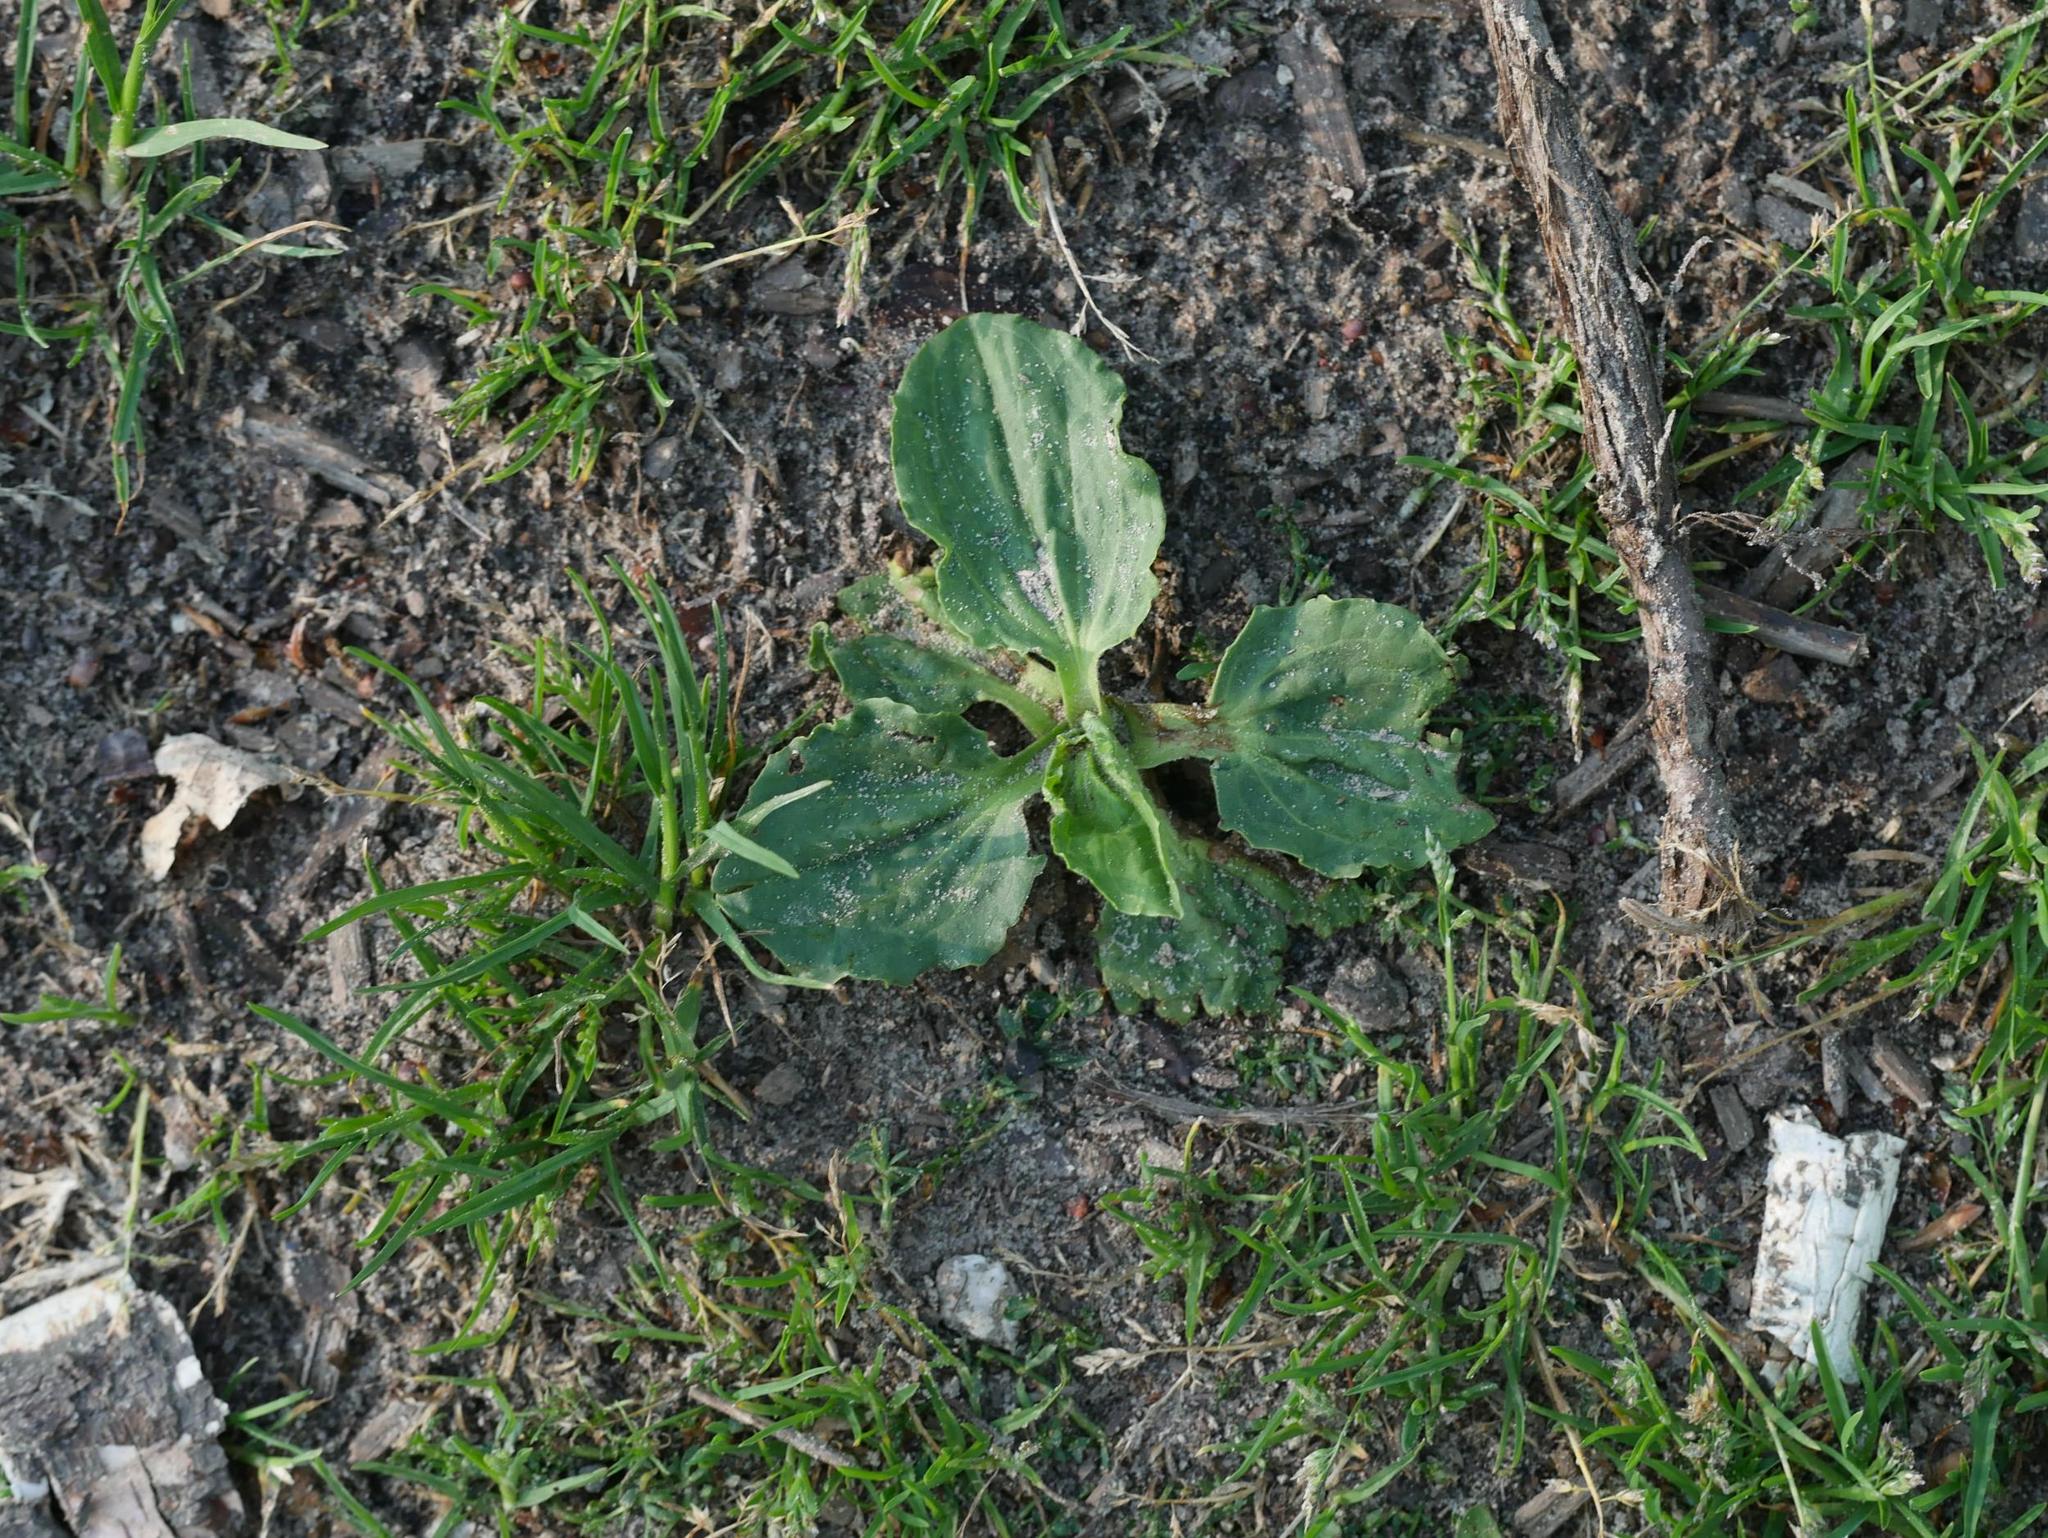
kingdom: Plantae
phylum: Tracheophyta
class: Magnoliopsida
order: Lamiales
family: Plantaginaceae
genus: Plantago
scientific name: Plantago major
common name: Common plantain
